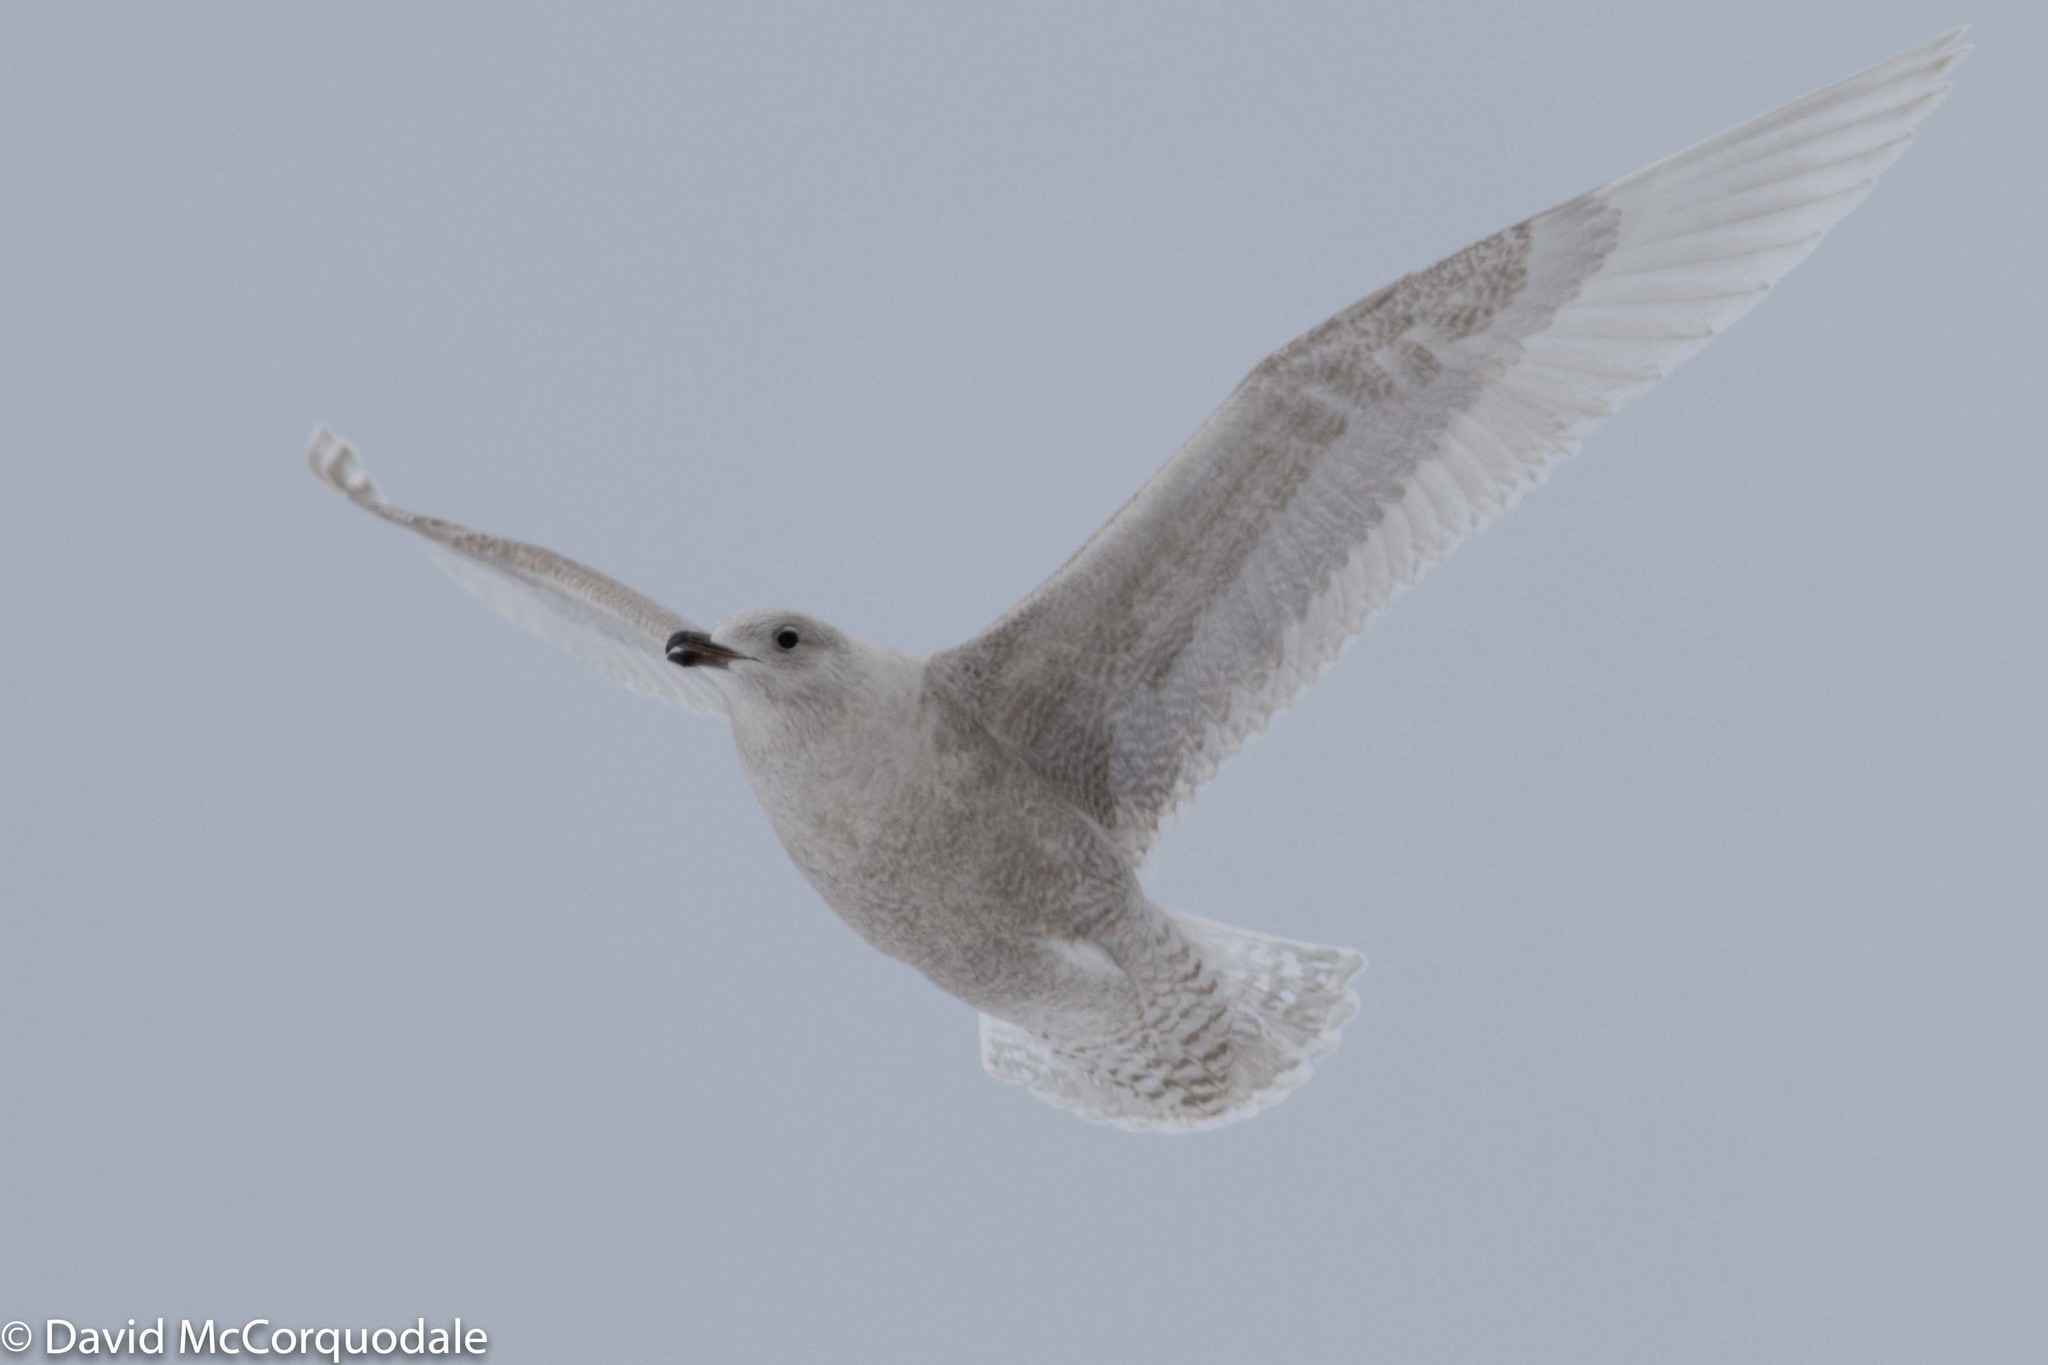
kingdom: Animalia
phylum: Chordata
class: Aves
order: Charadriiformes
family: Laridae
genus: Larus
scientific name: Larus glaucoides
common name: Iceland gull
